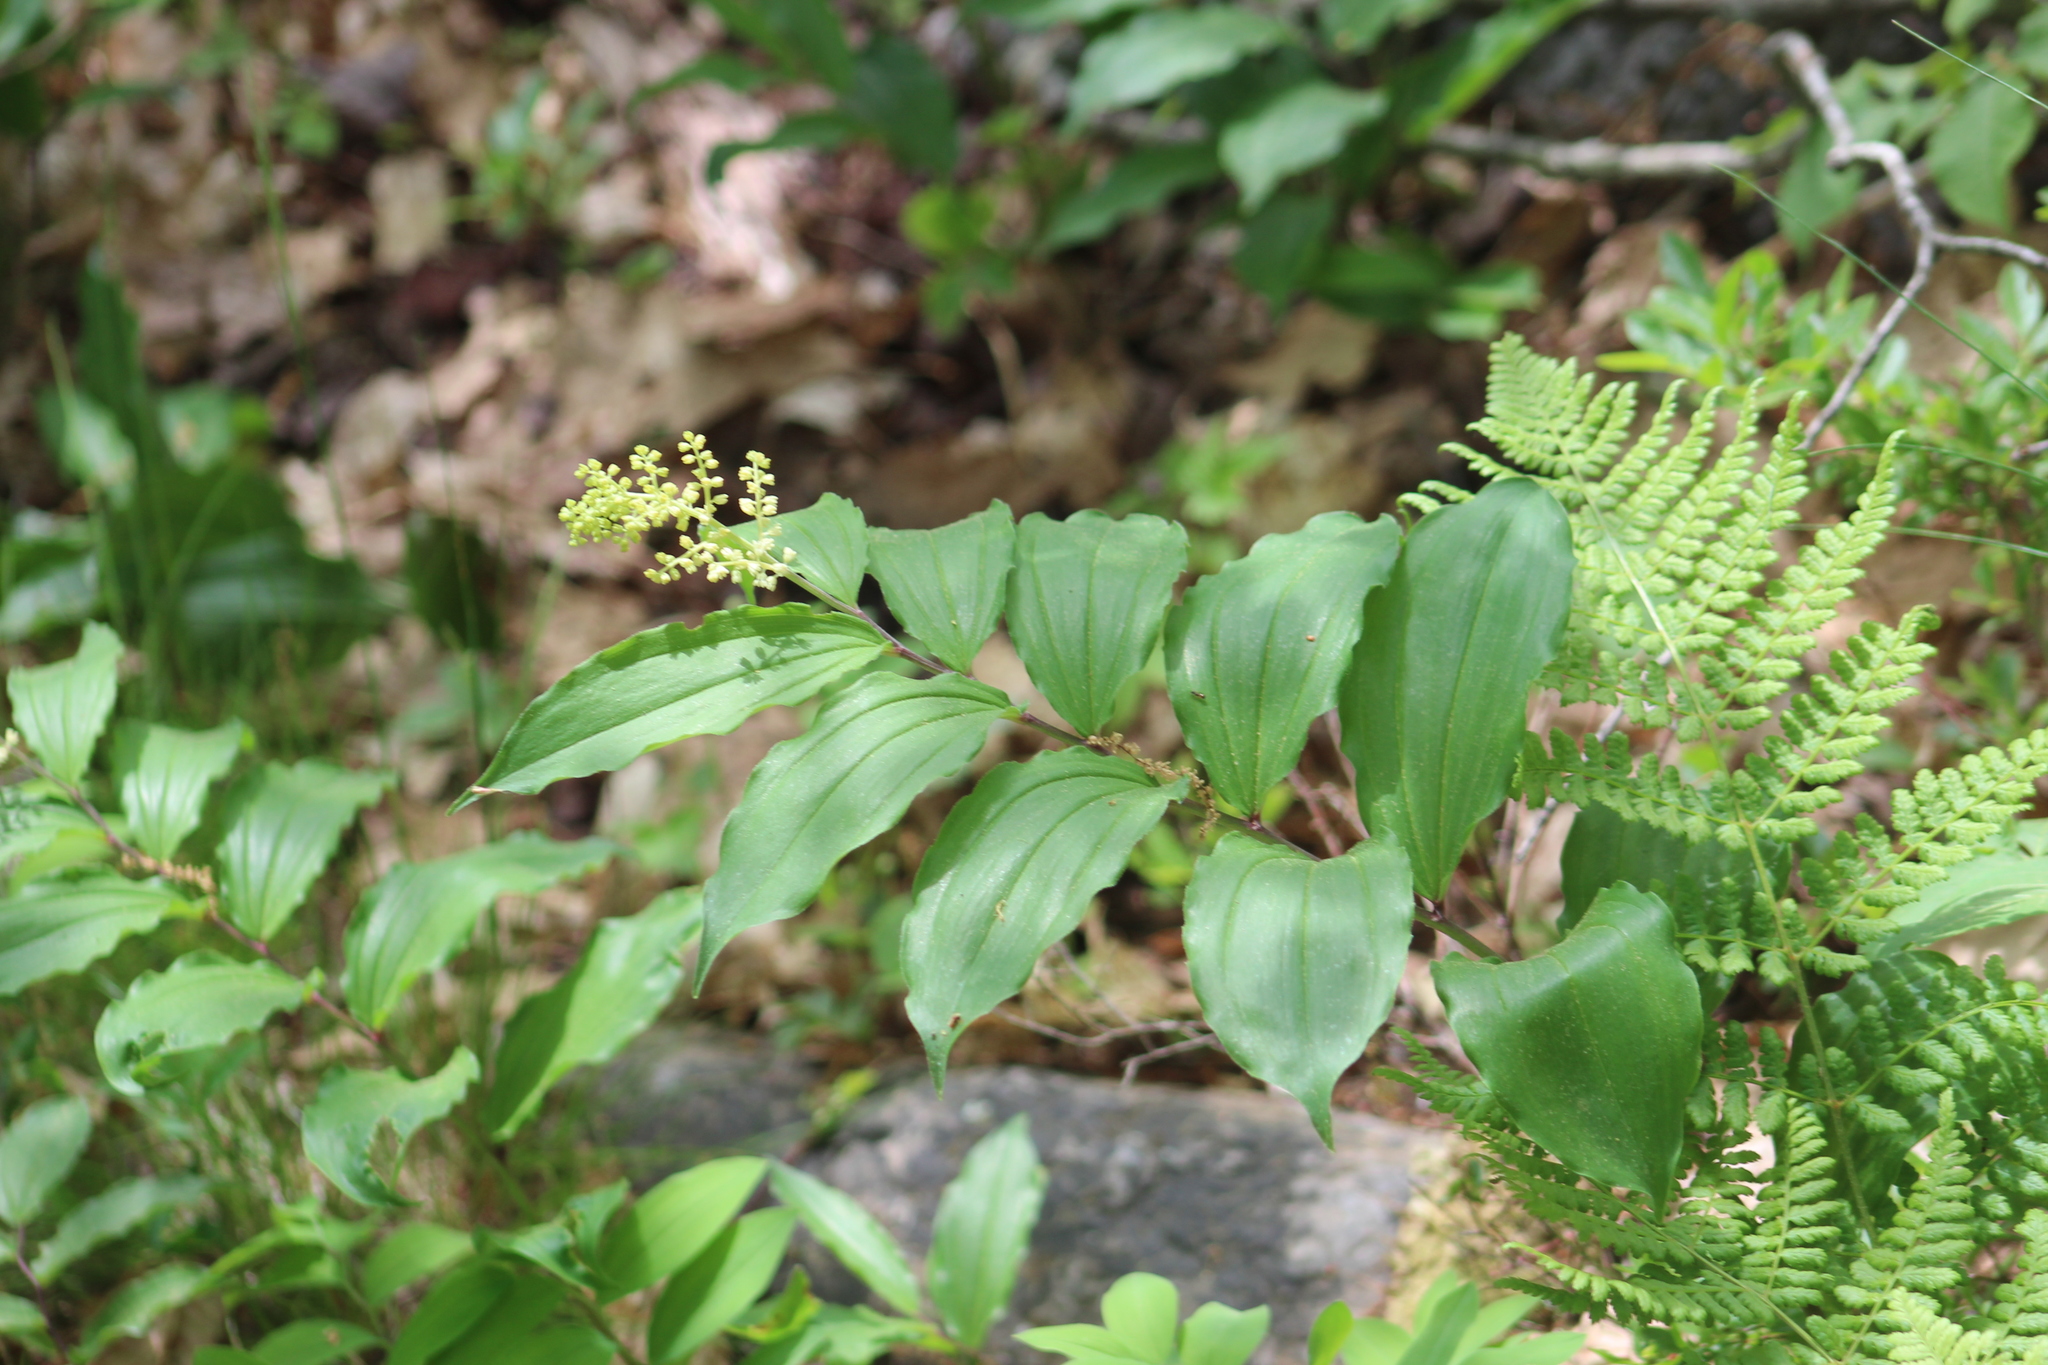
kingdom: Plantae
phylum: Tracheophyta
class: Liliopsida
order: Asparagales
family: Asparagaceae
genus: Maianthemum
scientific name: Maianthemum racemosum
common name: False spikenard
